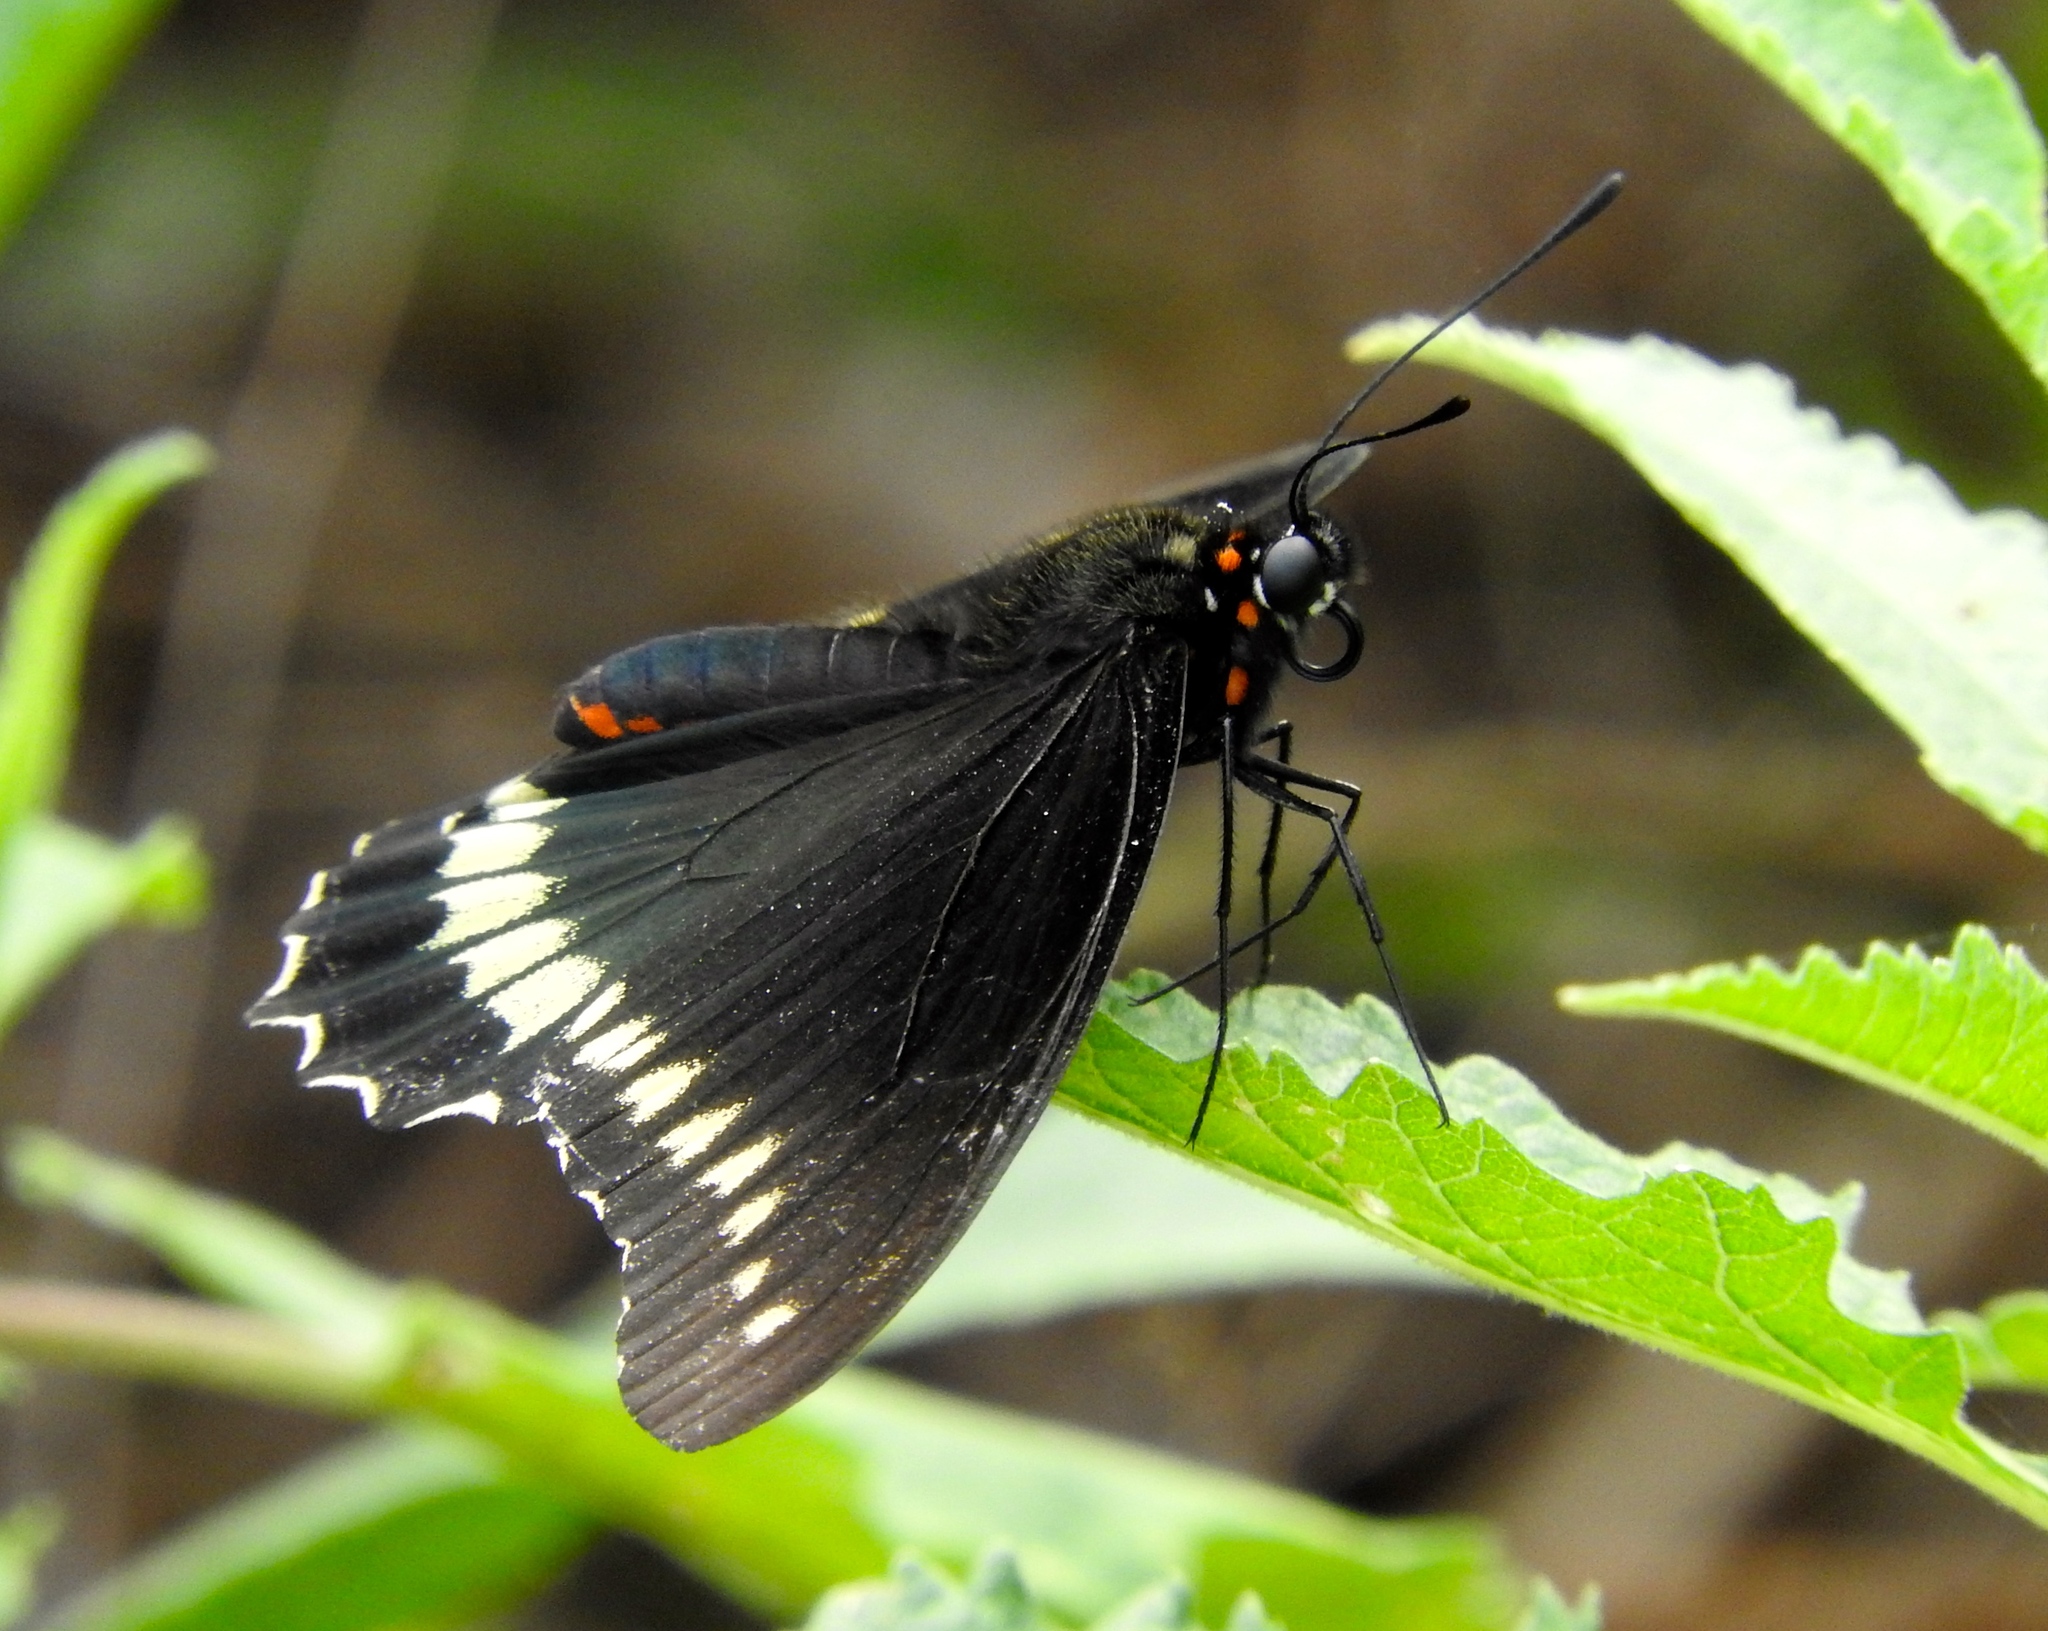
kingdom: Animalia
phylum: Arthropoda
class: Insecta
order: Lepidoptera
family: Papilionidae
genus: Battus
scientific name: Battus polydamas
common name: Polydamas swallowtail
